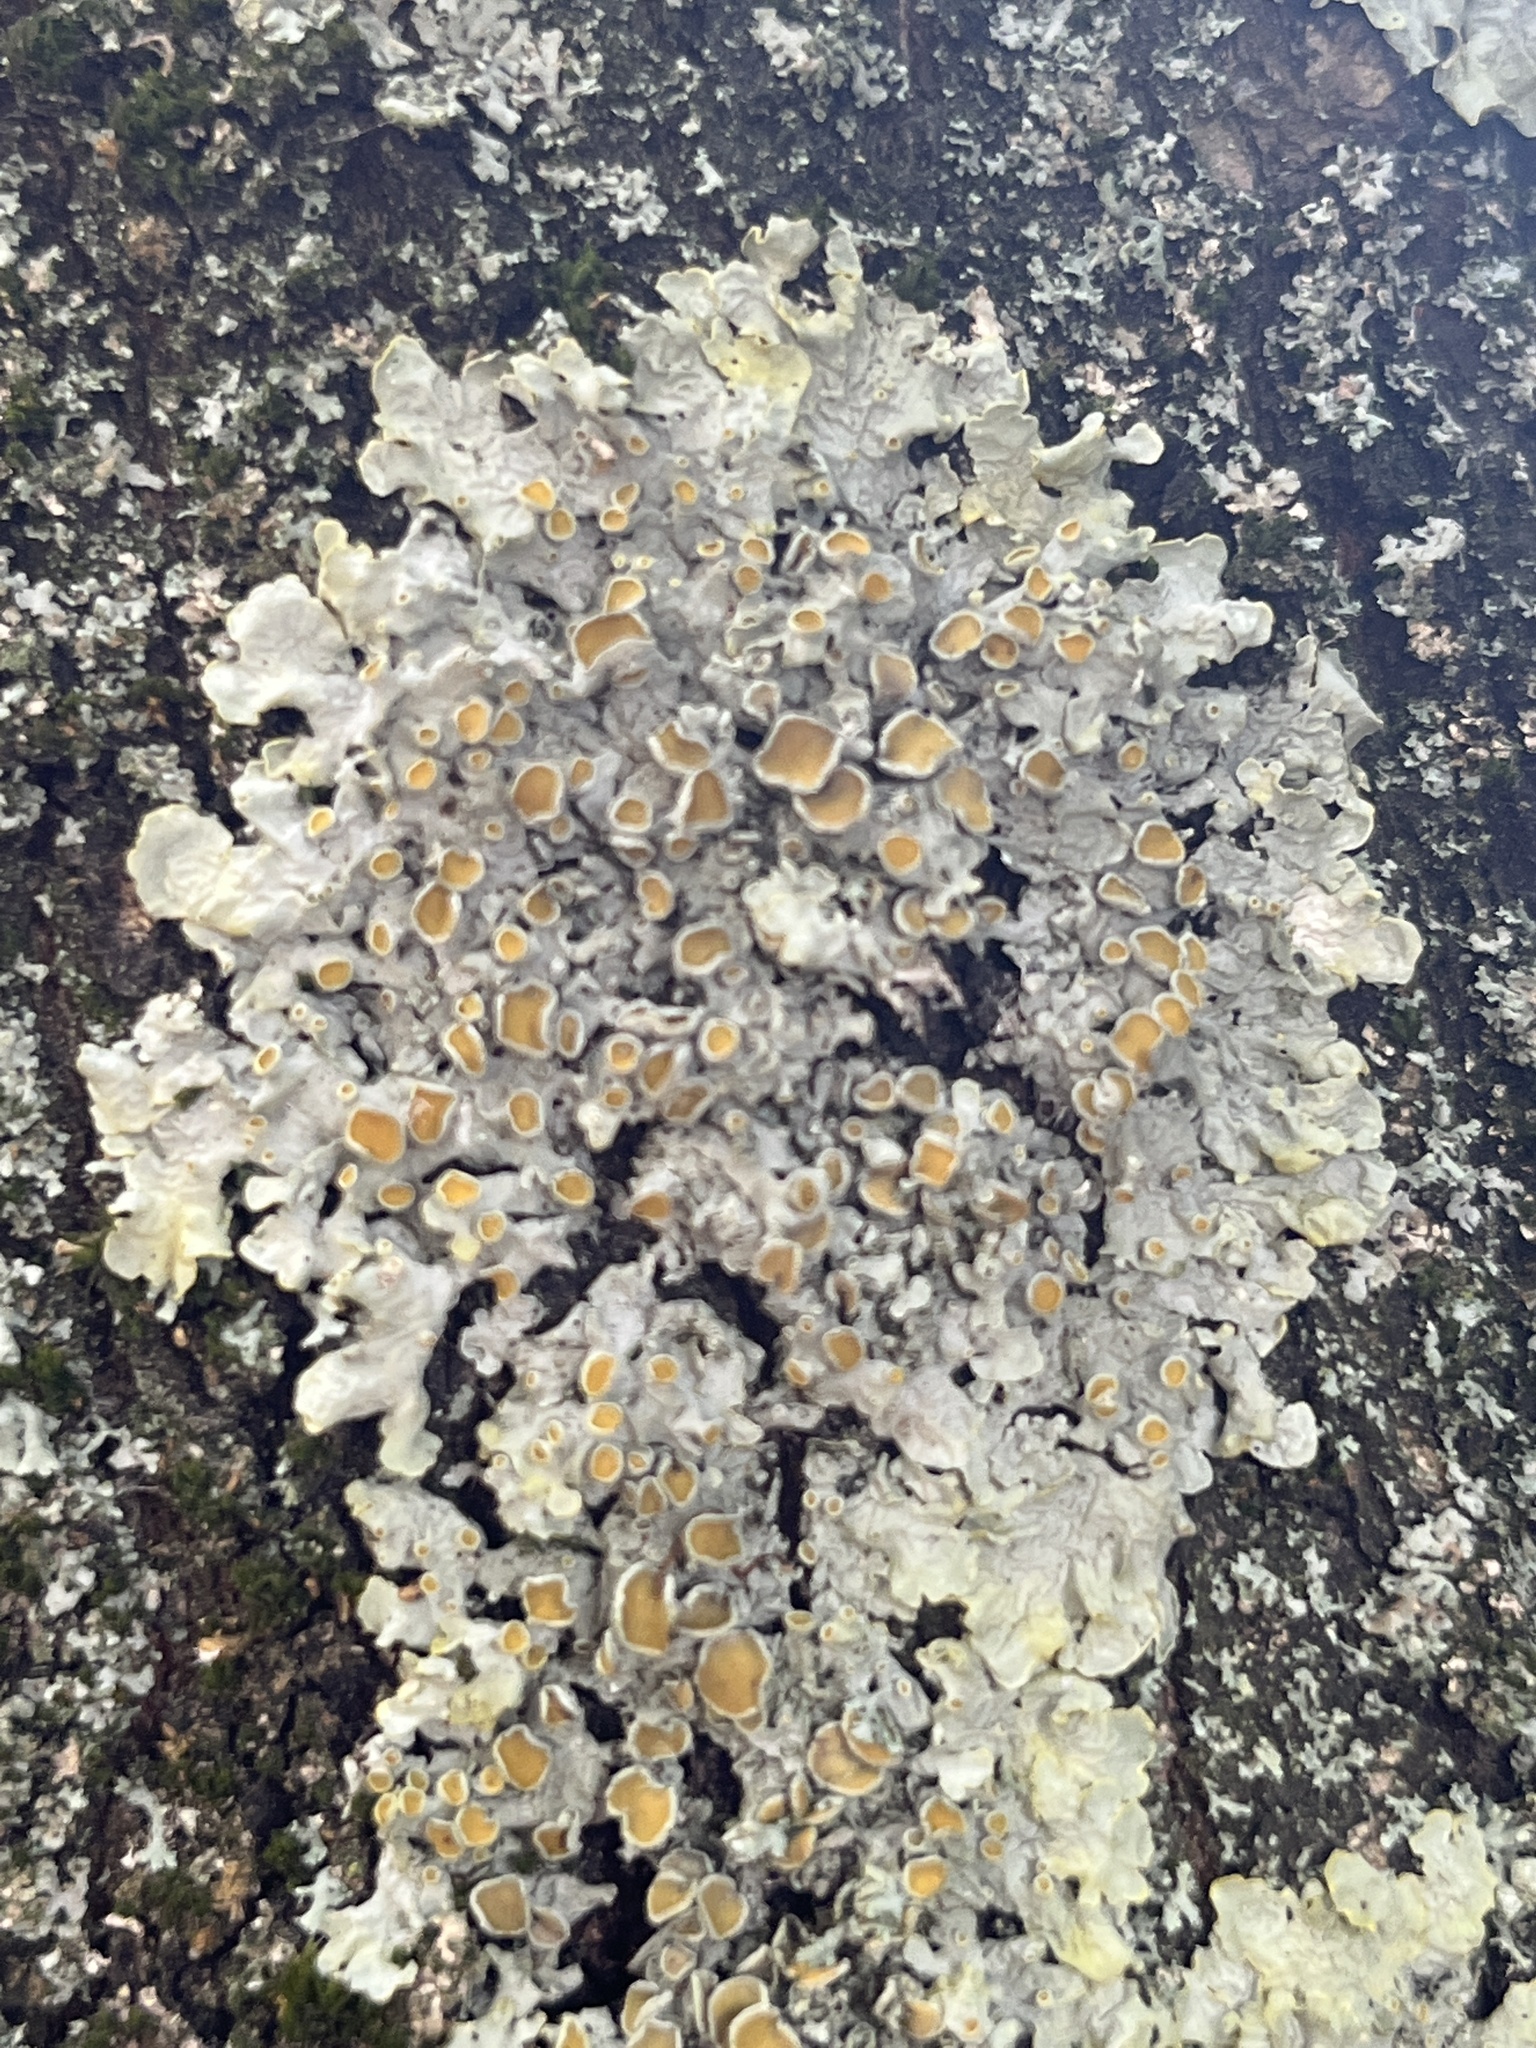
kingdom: Fungi
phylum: Ascomycota
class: Lecanoromycetes
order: Teloschistales
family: Teloschistaceae
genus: Xanthoria
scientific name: Xanthoria parietina
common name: Common orange lichen
